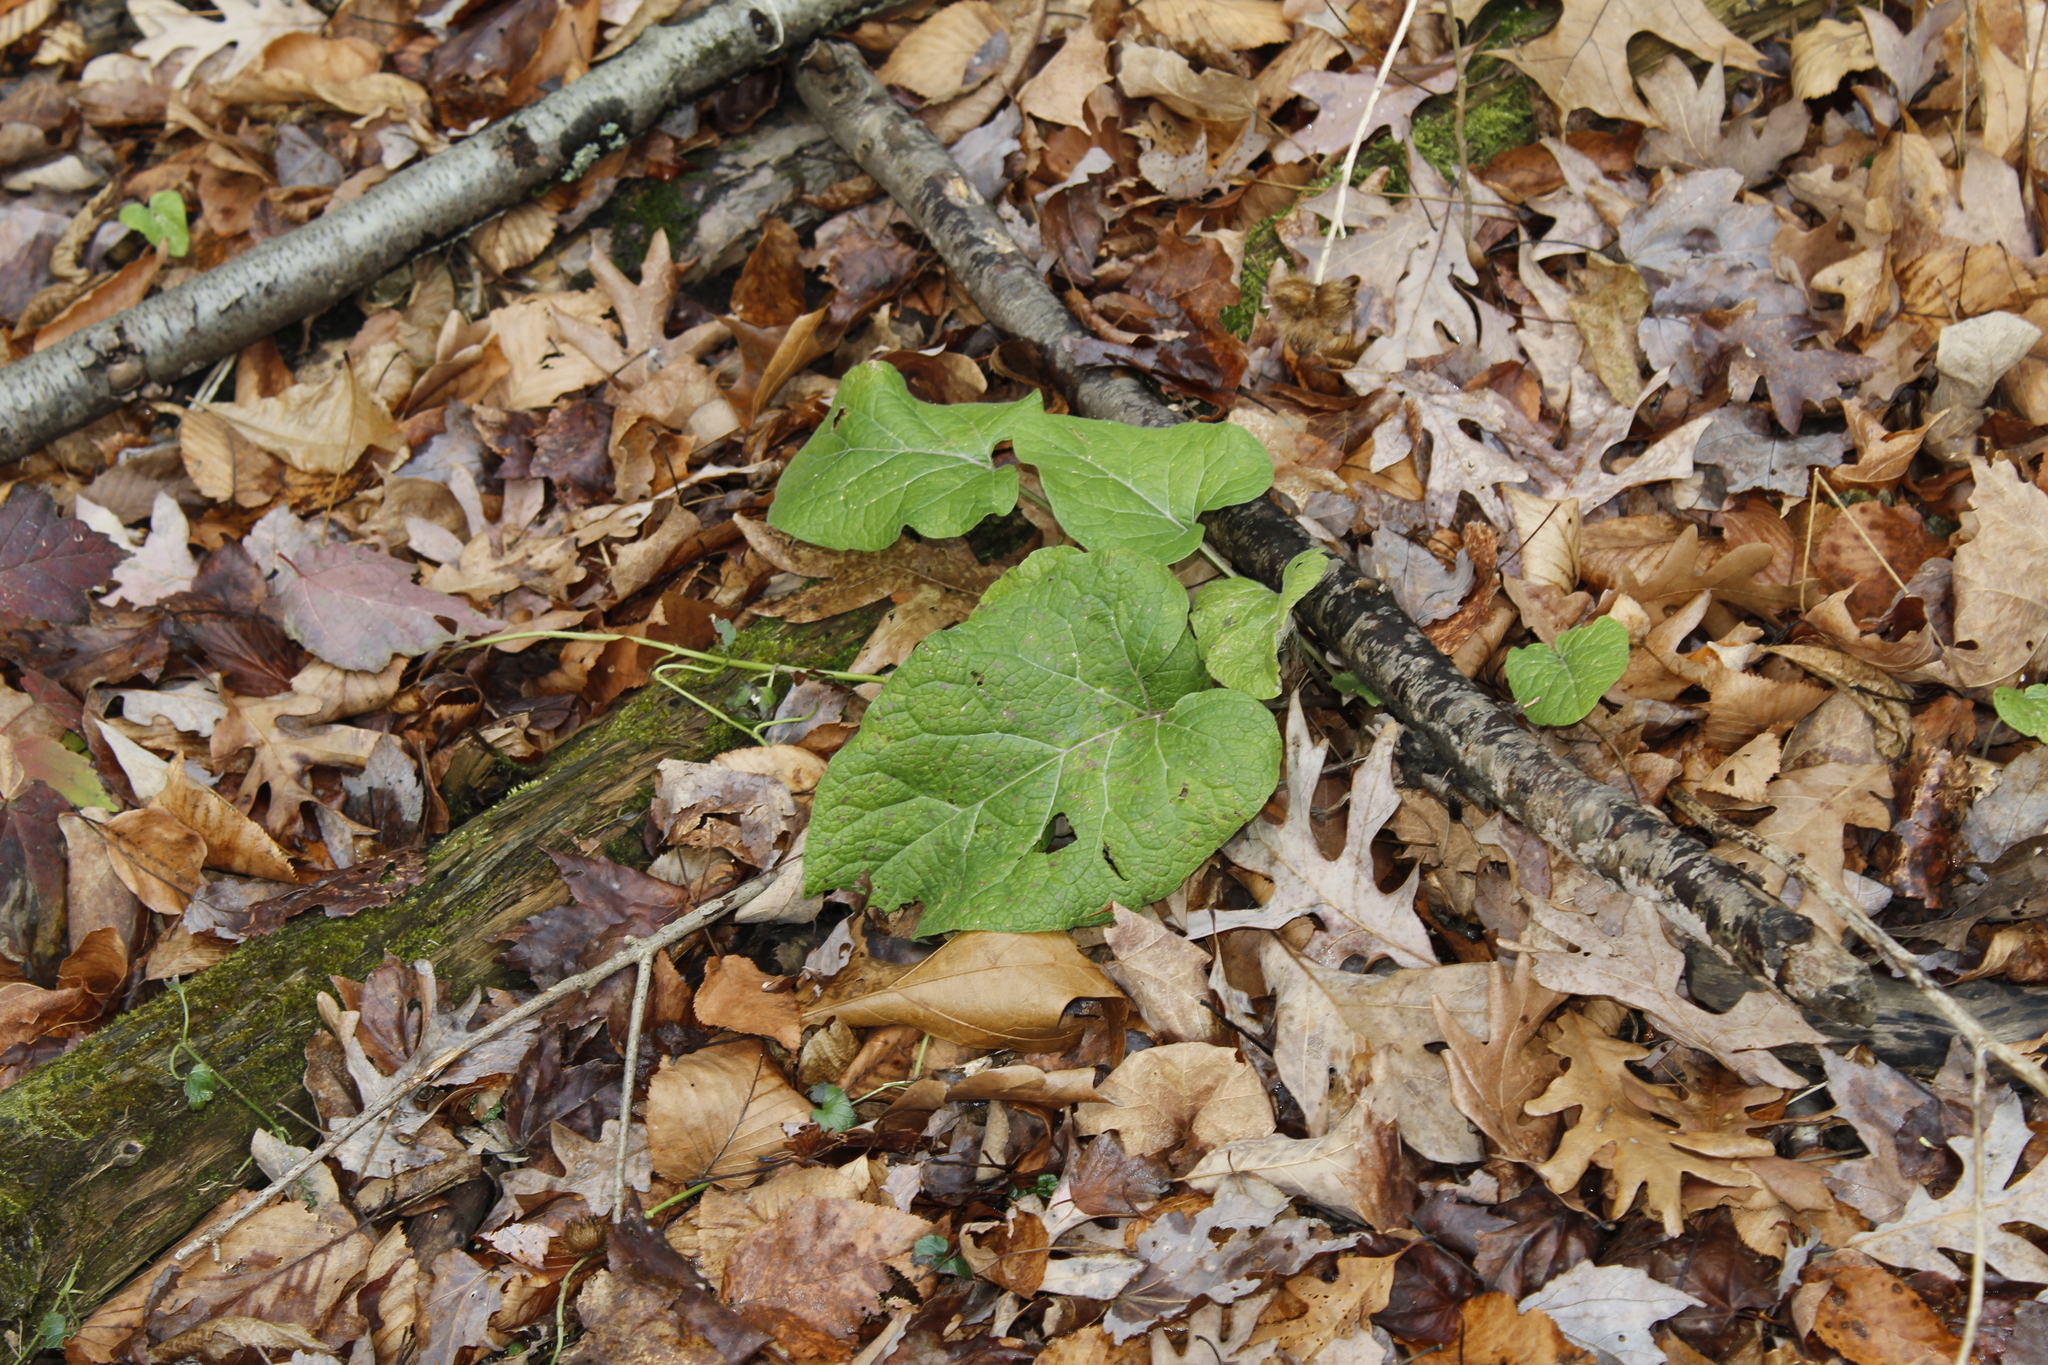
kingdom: Plantae
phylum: Tracheophyta
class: Magnoliopsida
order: Asterales
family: Asteraceae
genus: Arctium
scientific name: Arctium
